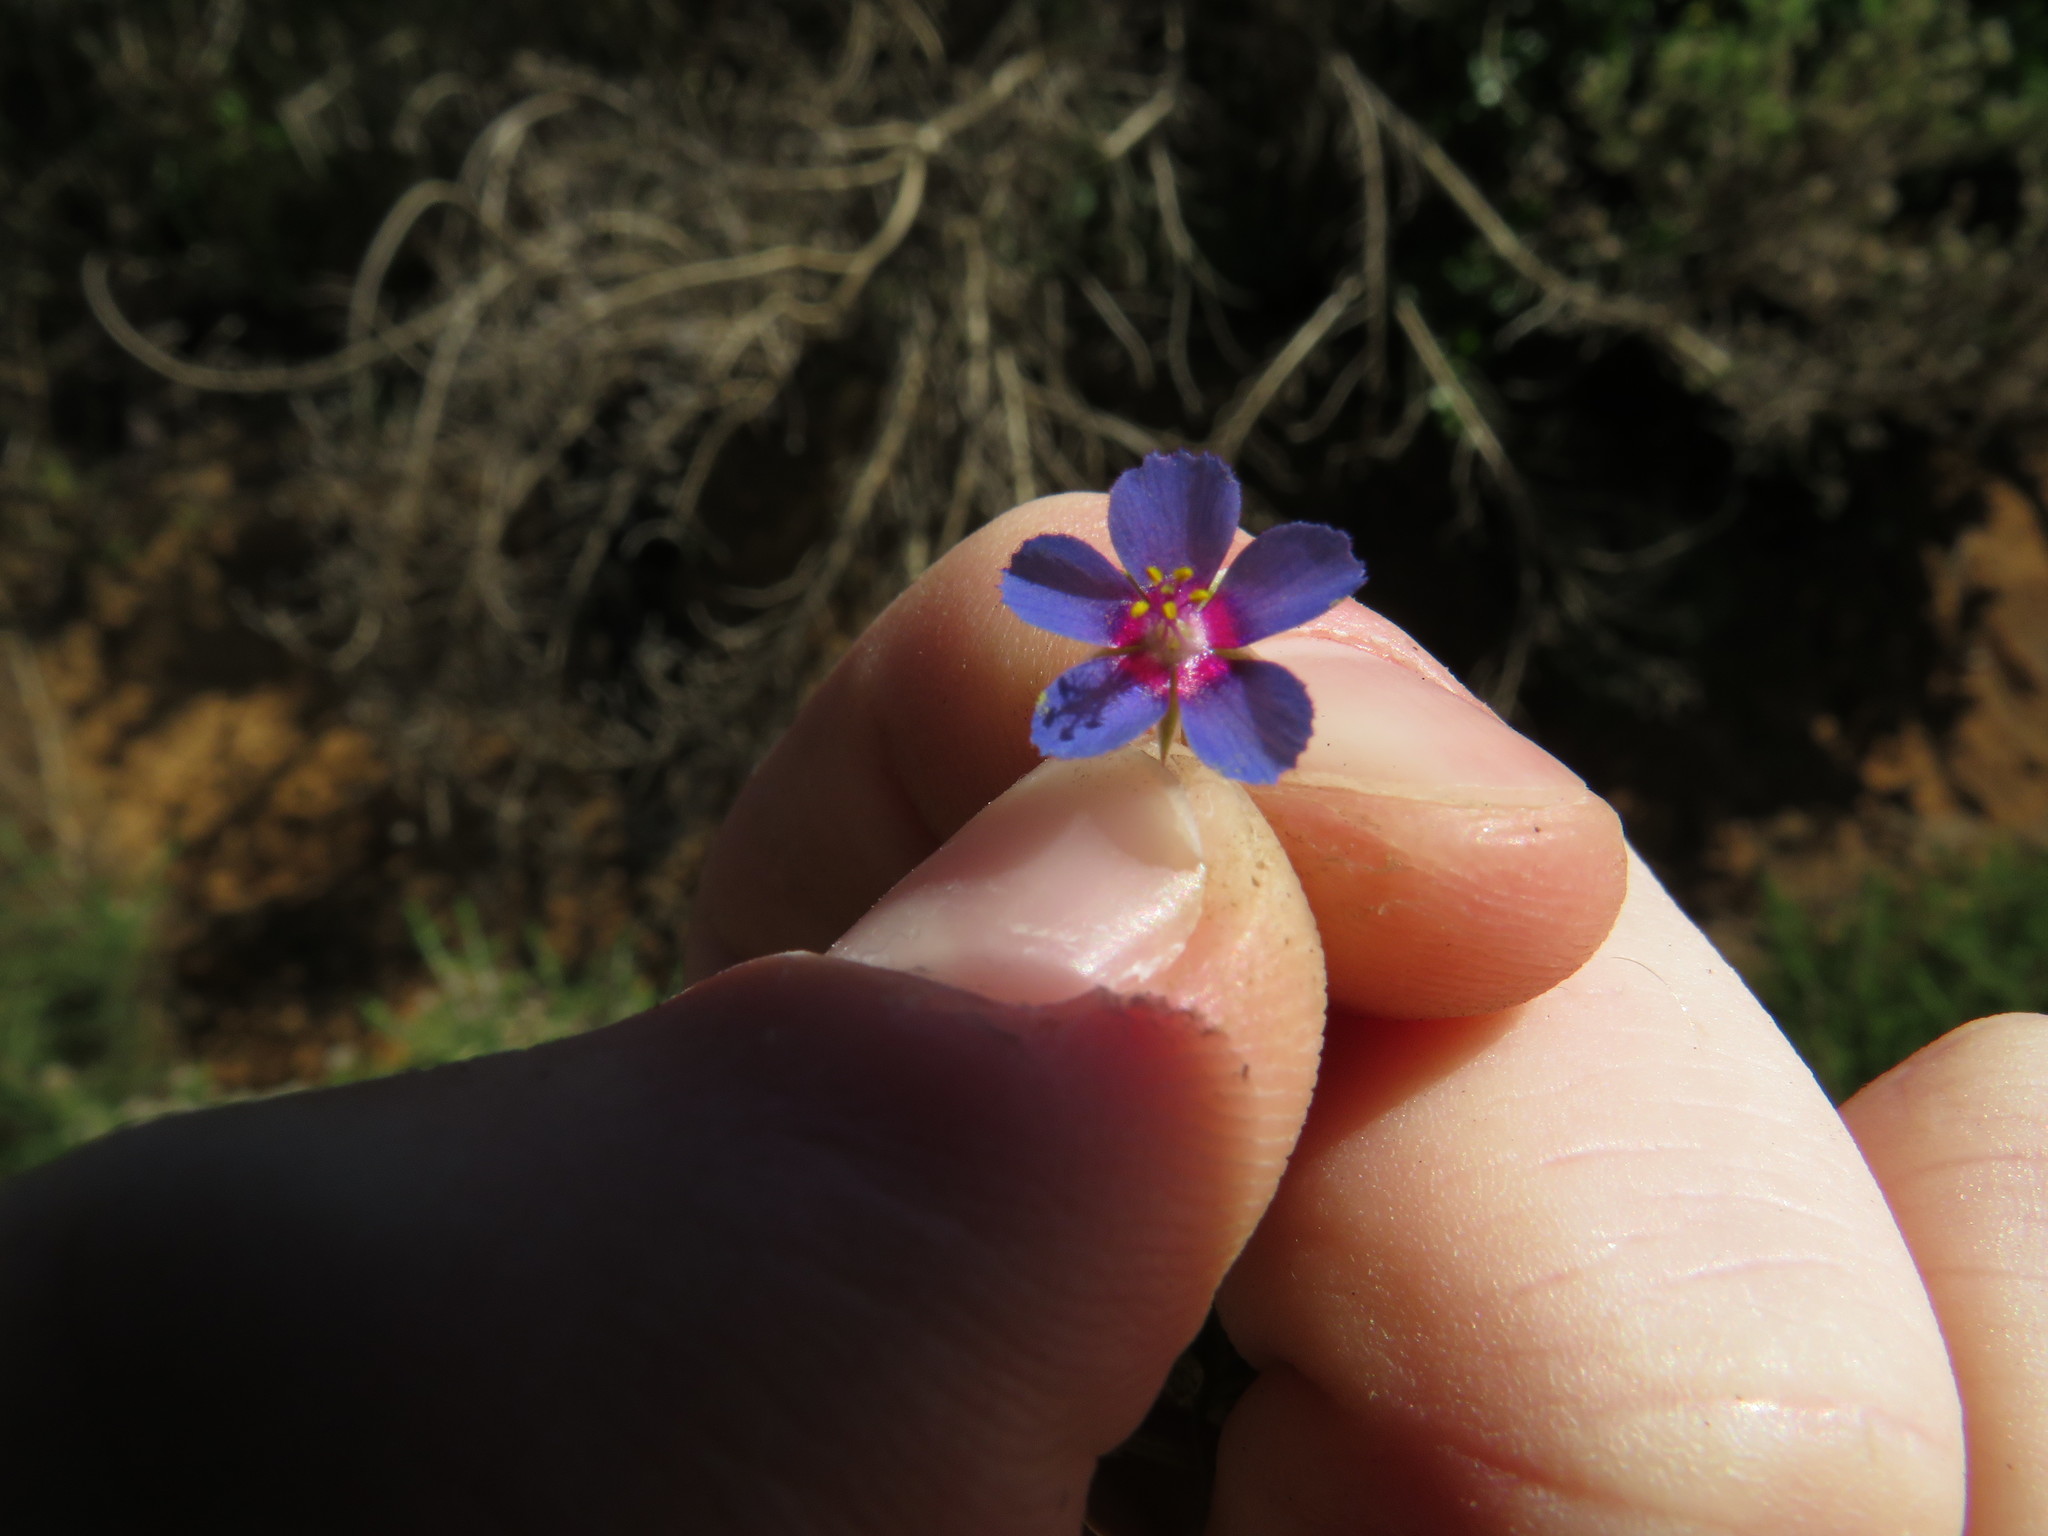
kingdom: Plantae
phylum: Tracheophyta
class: Magnoliopsida
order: Ericales
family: Primulaceae
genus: Lysimachia
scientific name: Lysimachia loeflingii
